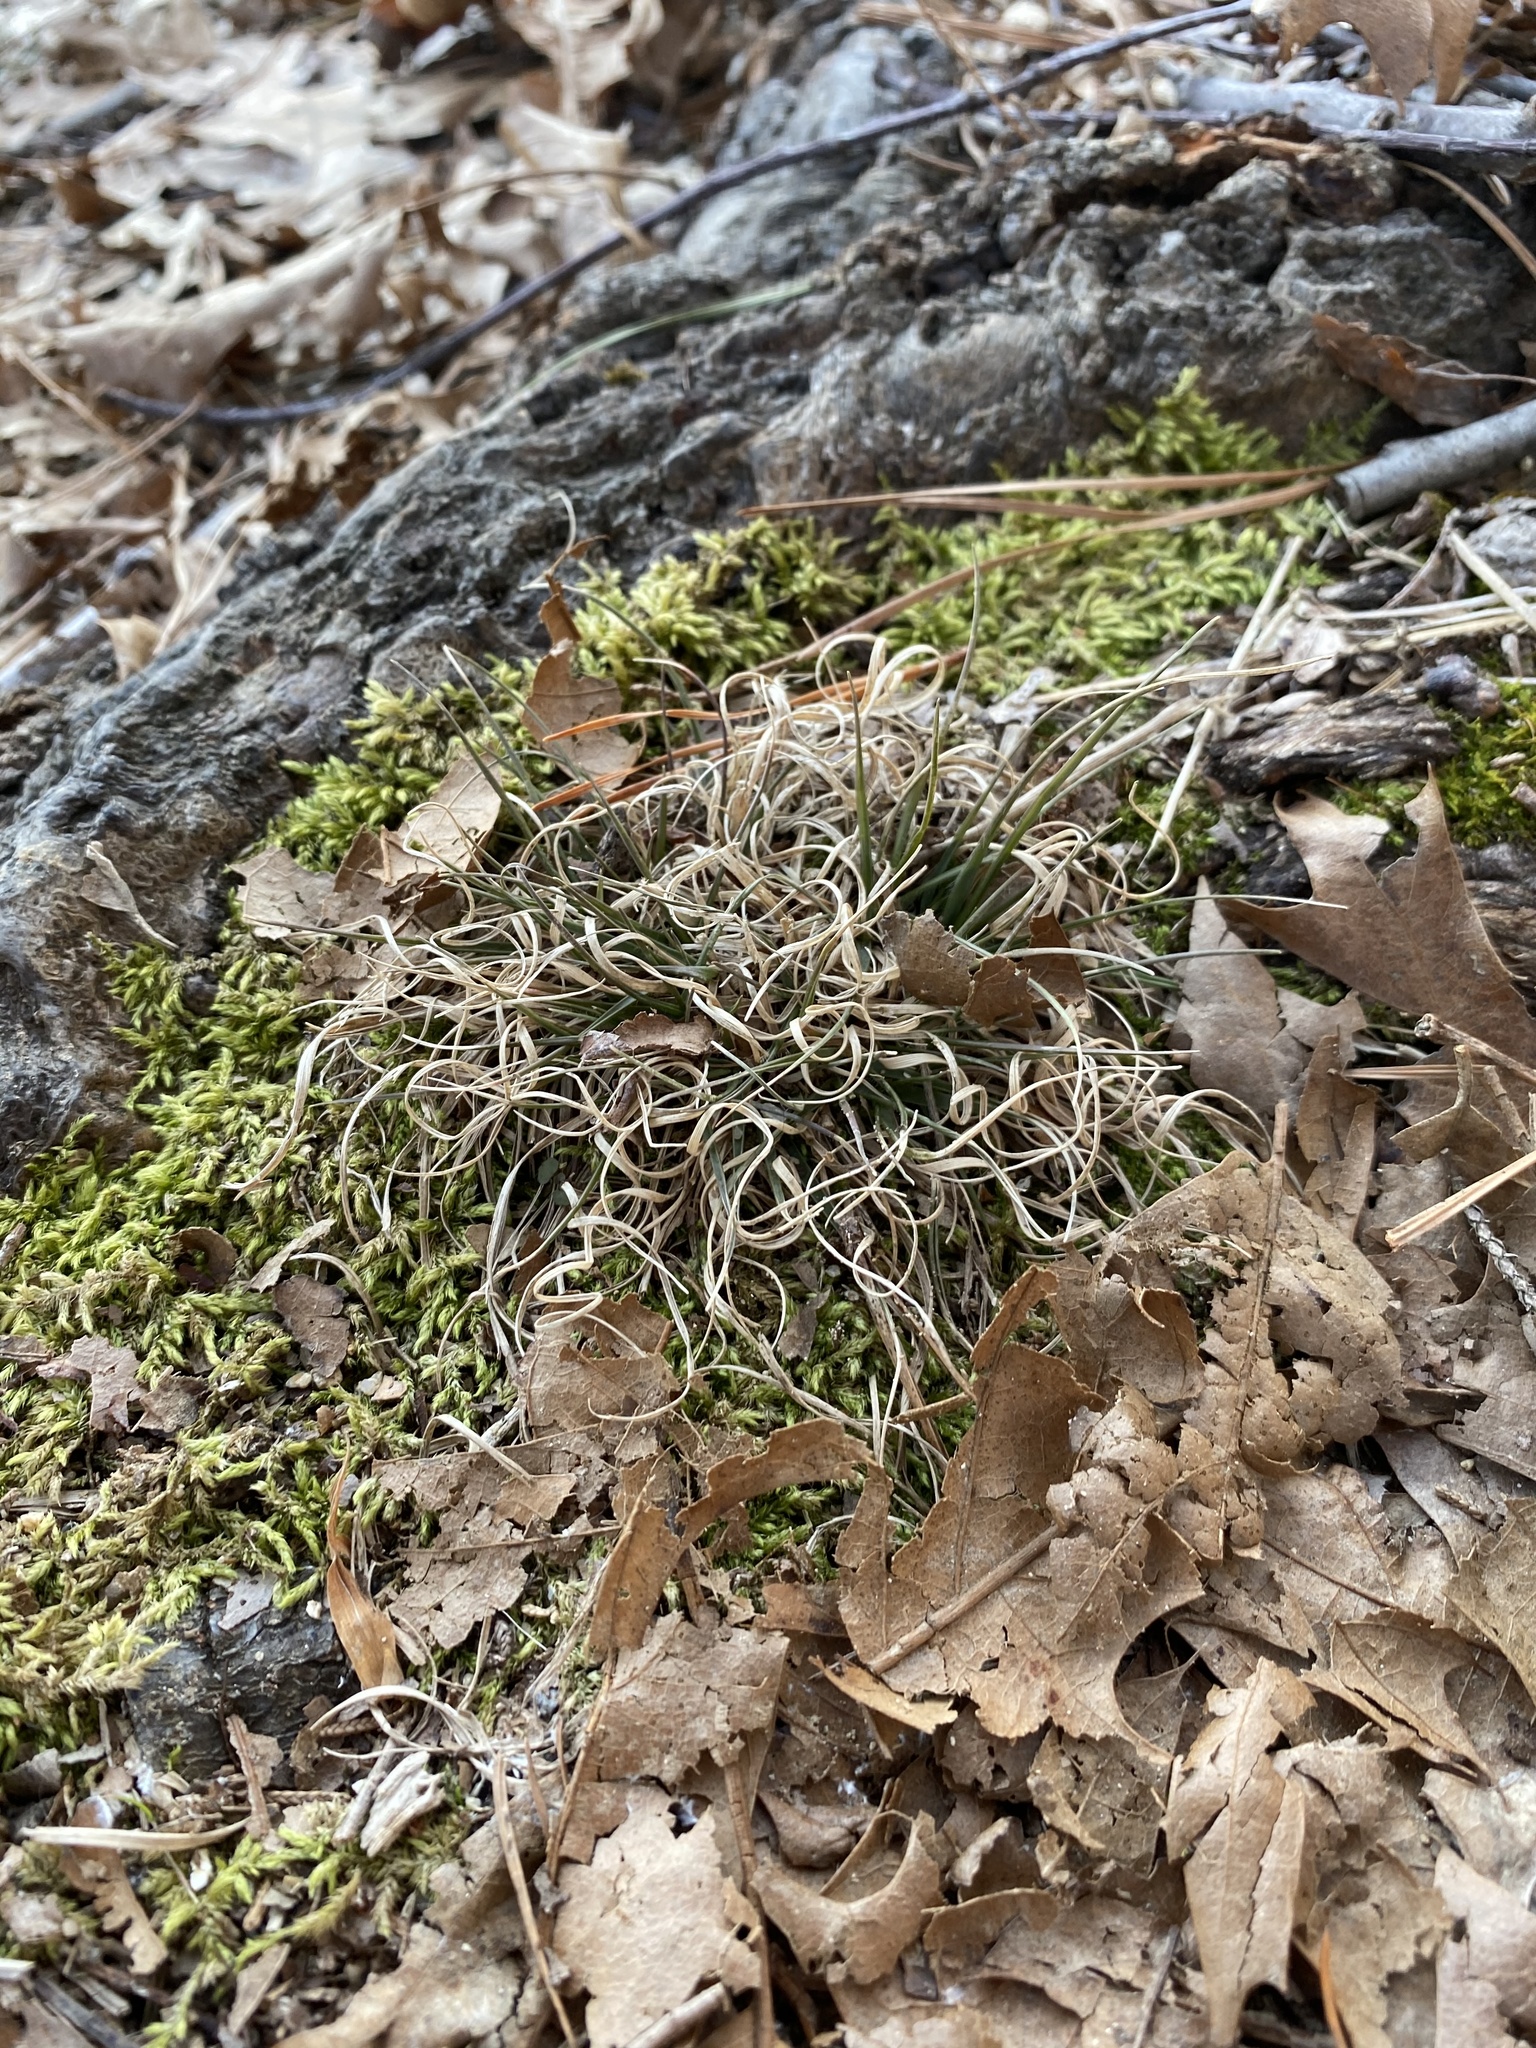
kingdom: Plantae
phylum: Tracheophyta
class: Liliopsida
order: Poales
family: Poaceae
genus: Danthonia
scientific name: Danthonia spicata
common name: Common wild oatgrass
